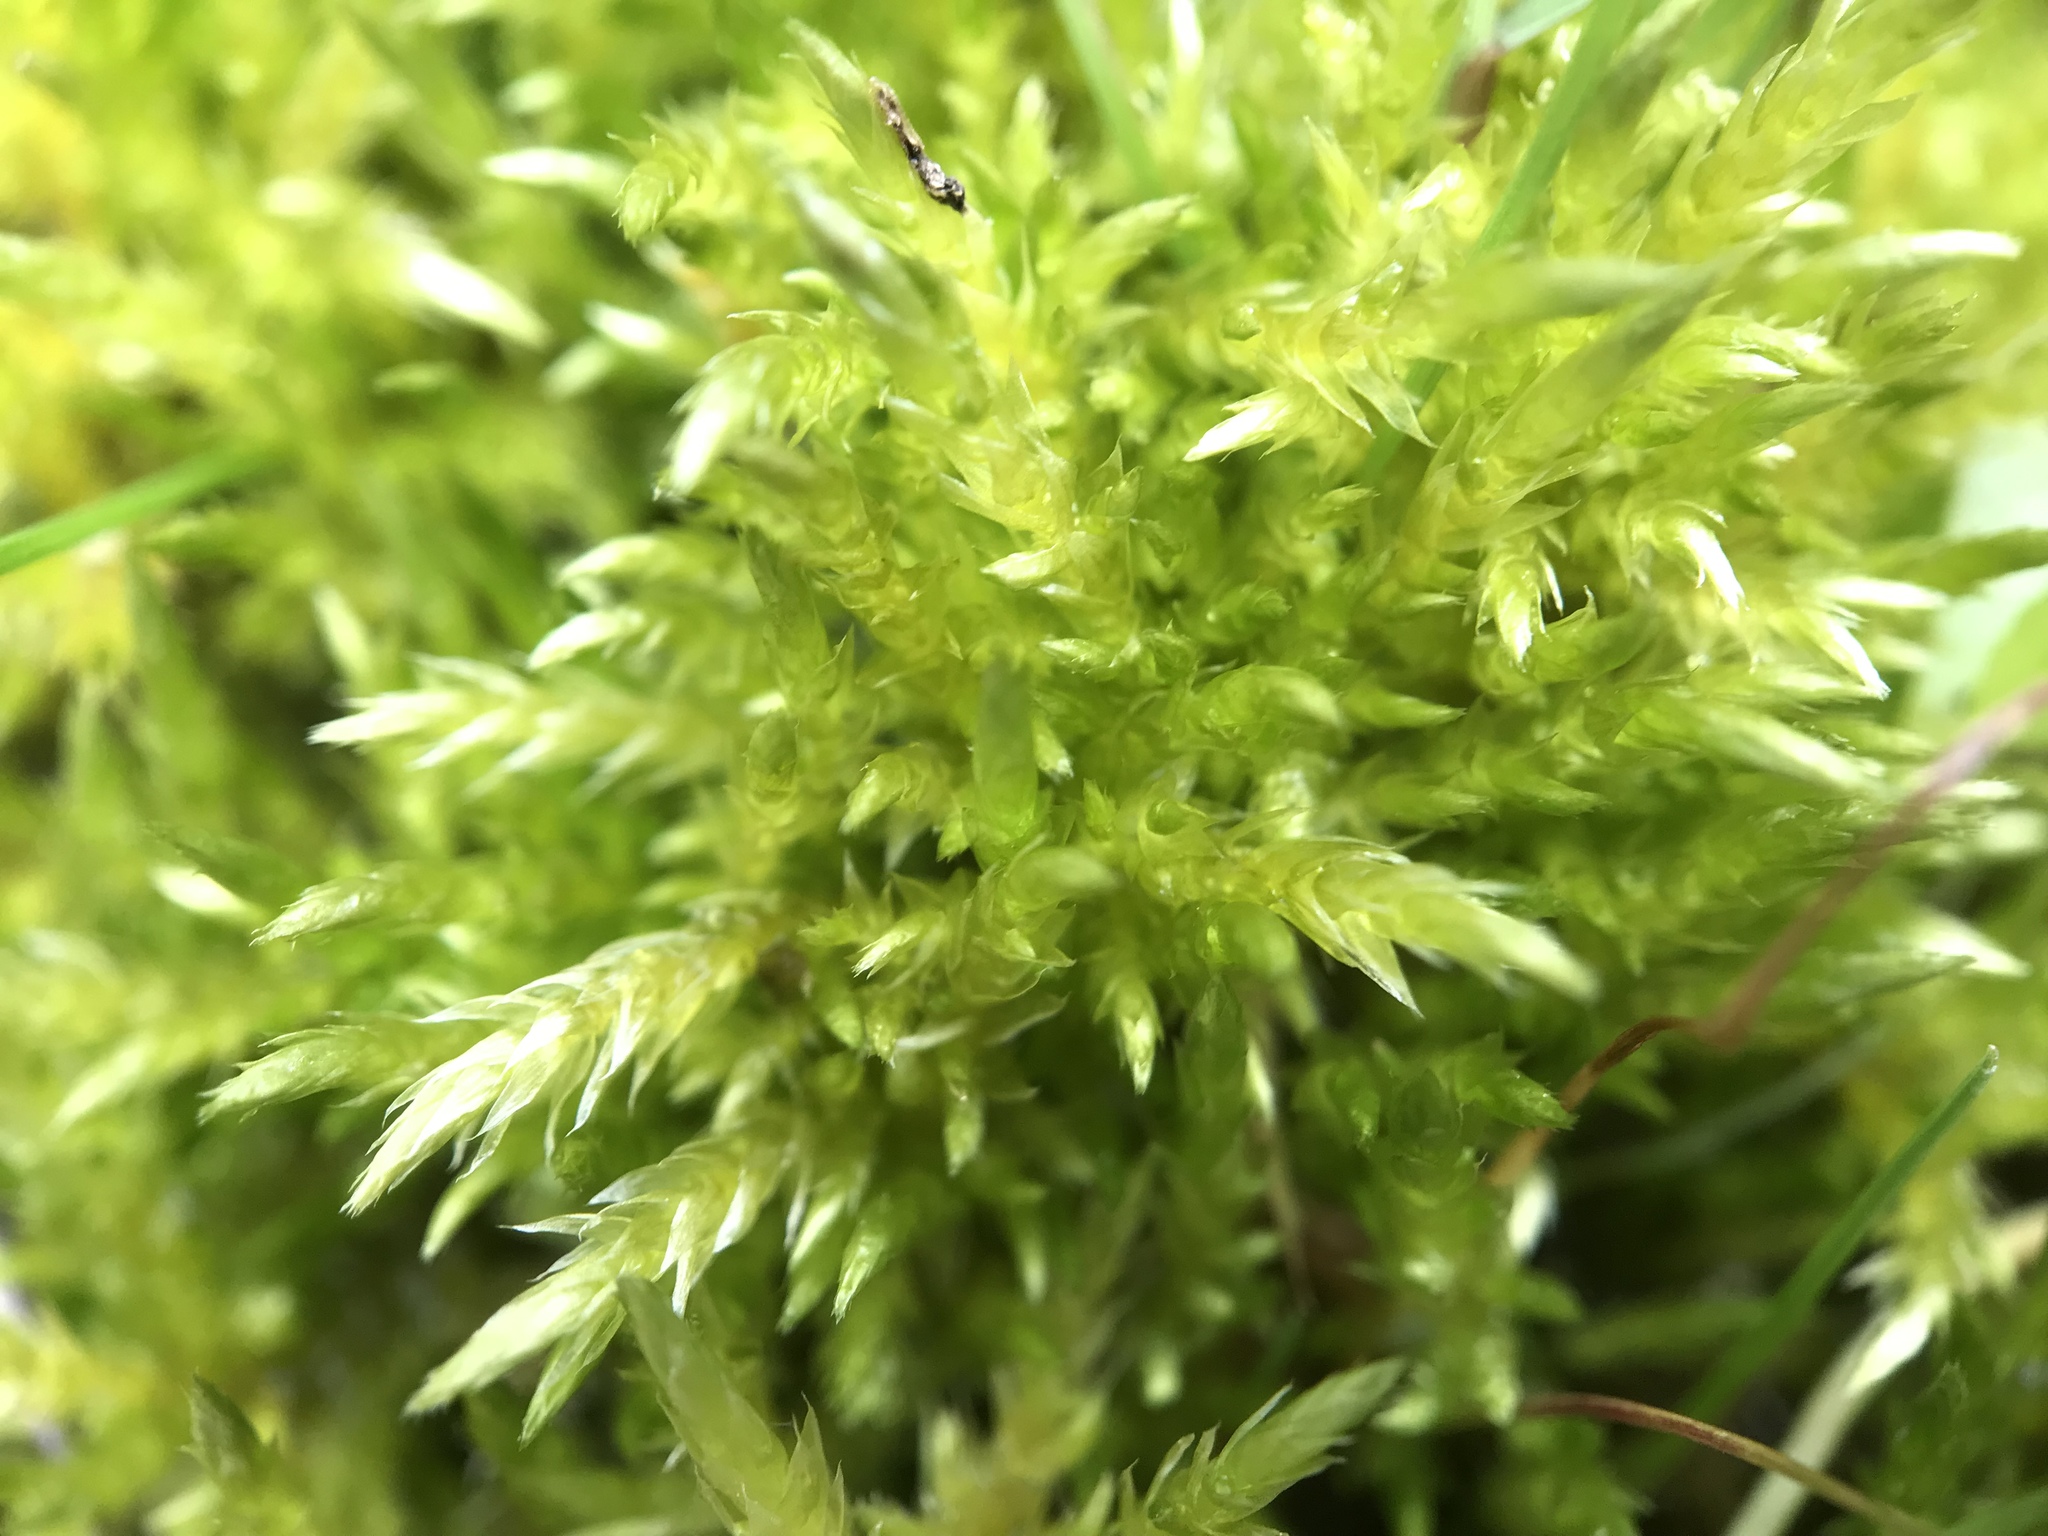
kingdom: Plantae
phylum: Bryophyta
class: Bryopsida
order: Hypnales
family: Brachytheciaceae
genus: Cirriphyllum
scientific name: Cirriphyllum piliferum
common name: Hair-pointed moss
